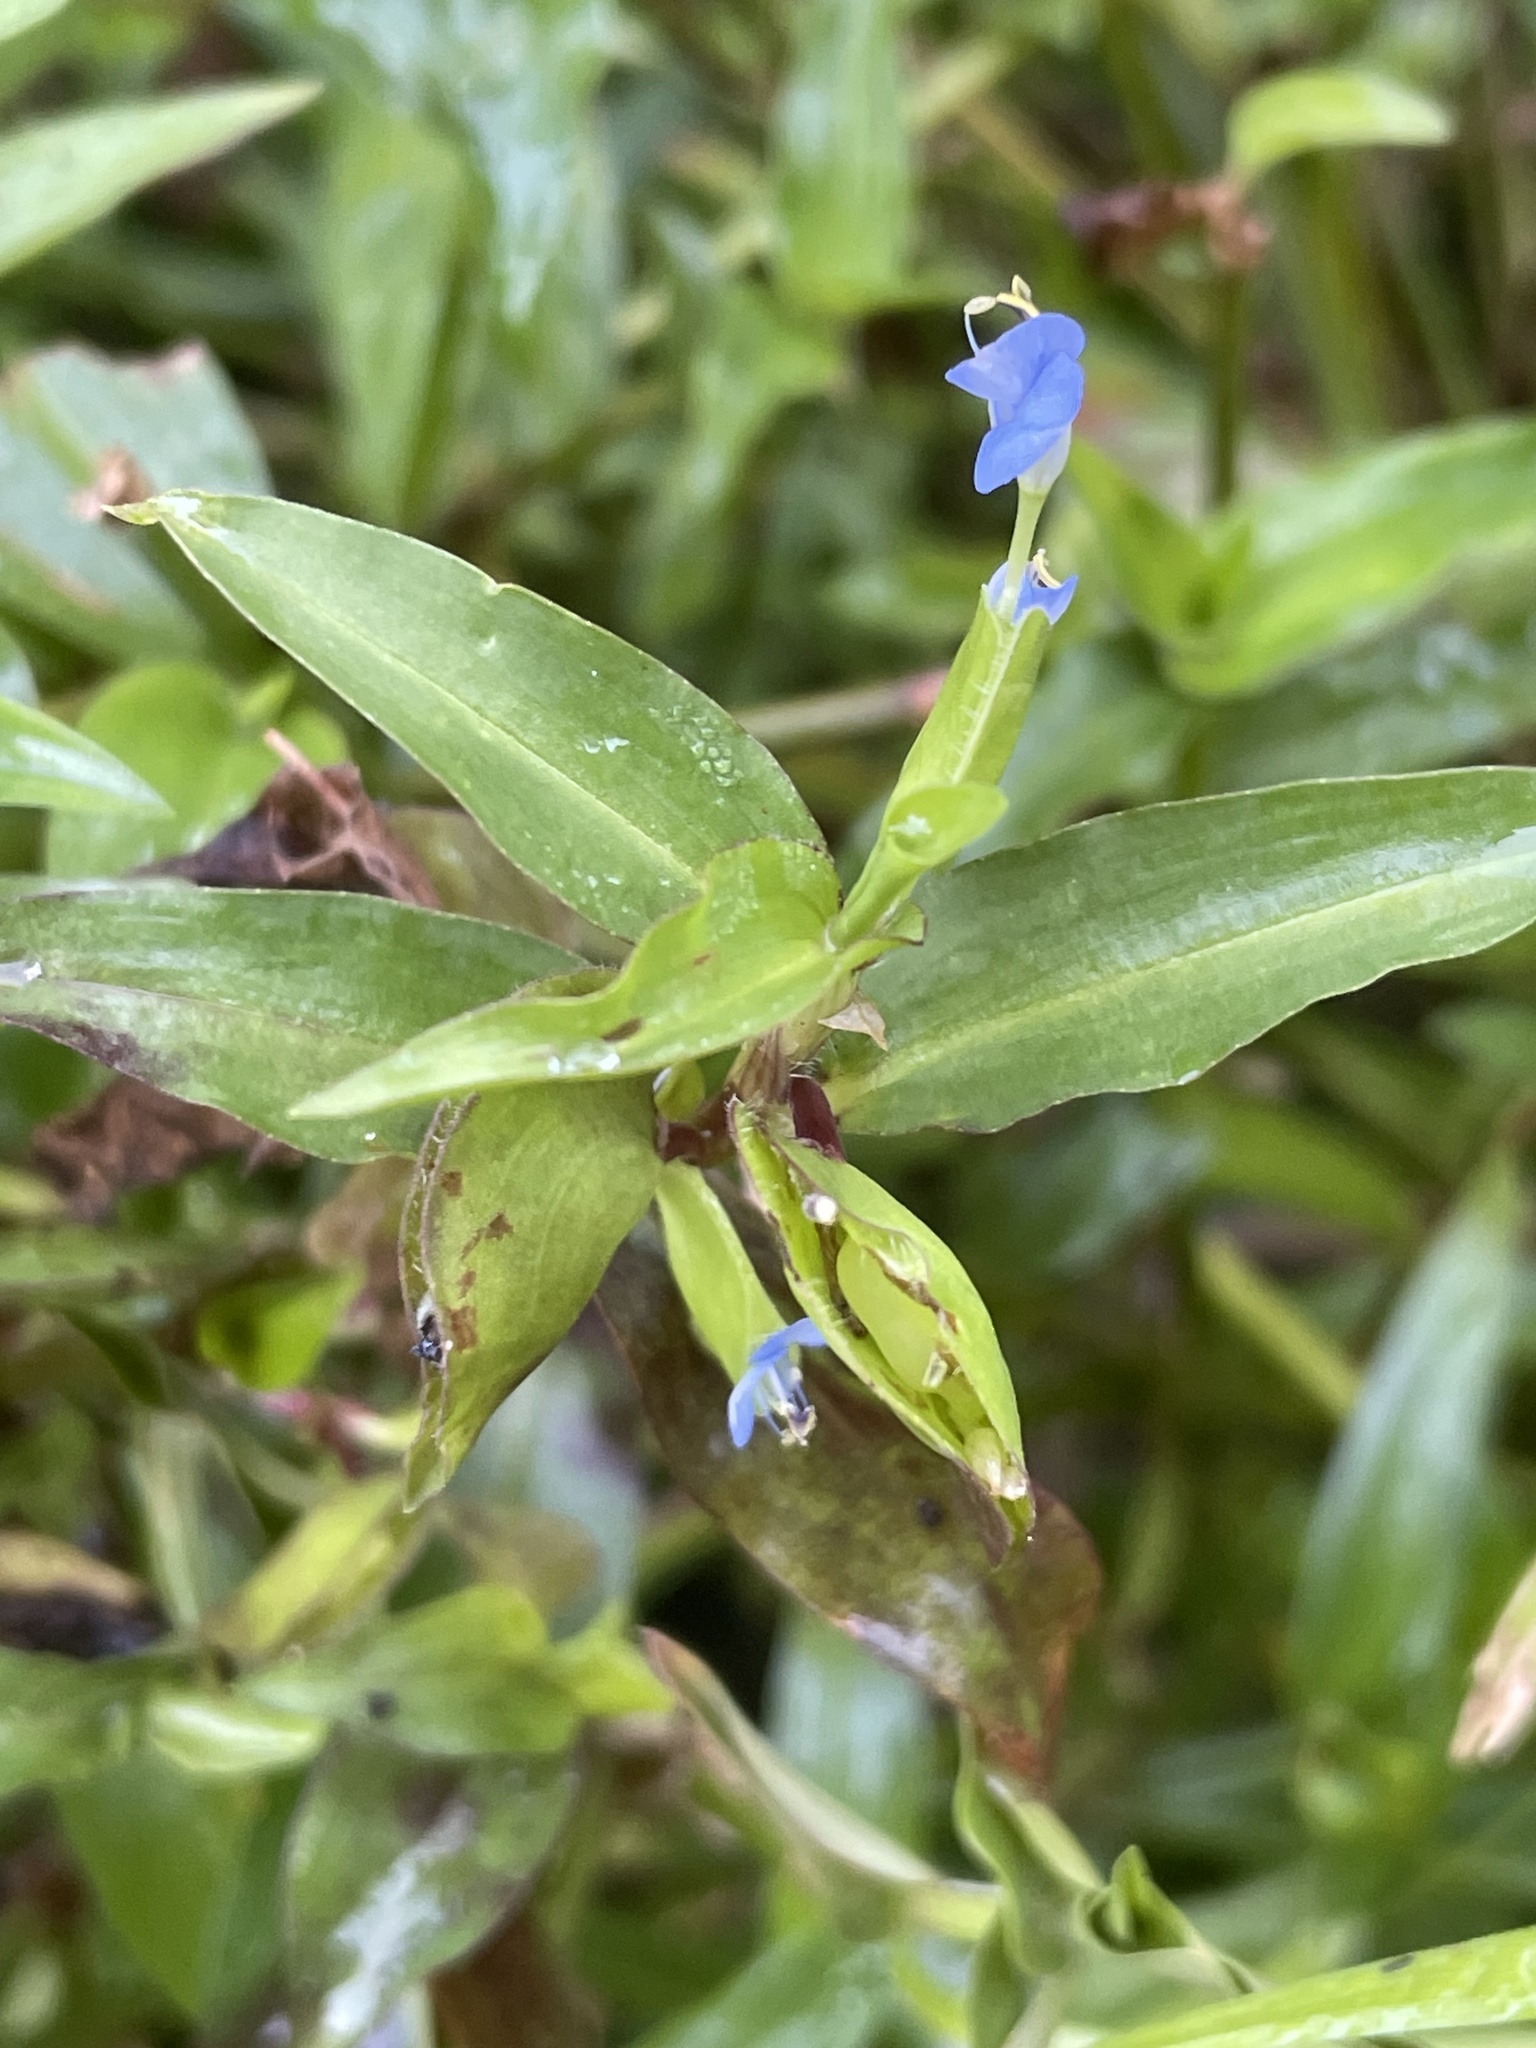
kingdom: Plantae
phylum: Tracheophyta
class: Liliopsida
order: Commelinales
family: Commelinaceae
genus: Commelina
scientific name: Commelina diffusa
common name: Climbing dayflower
